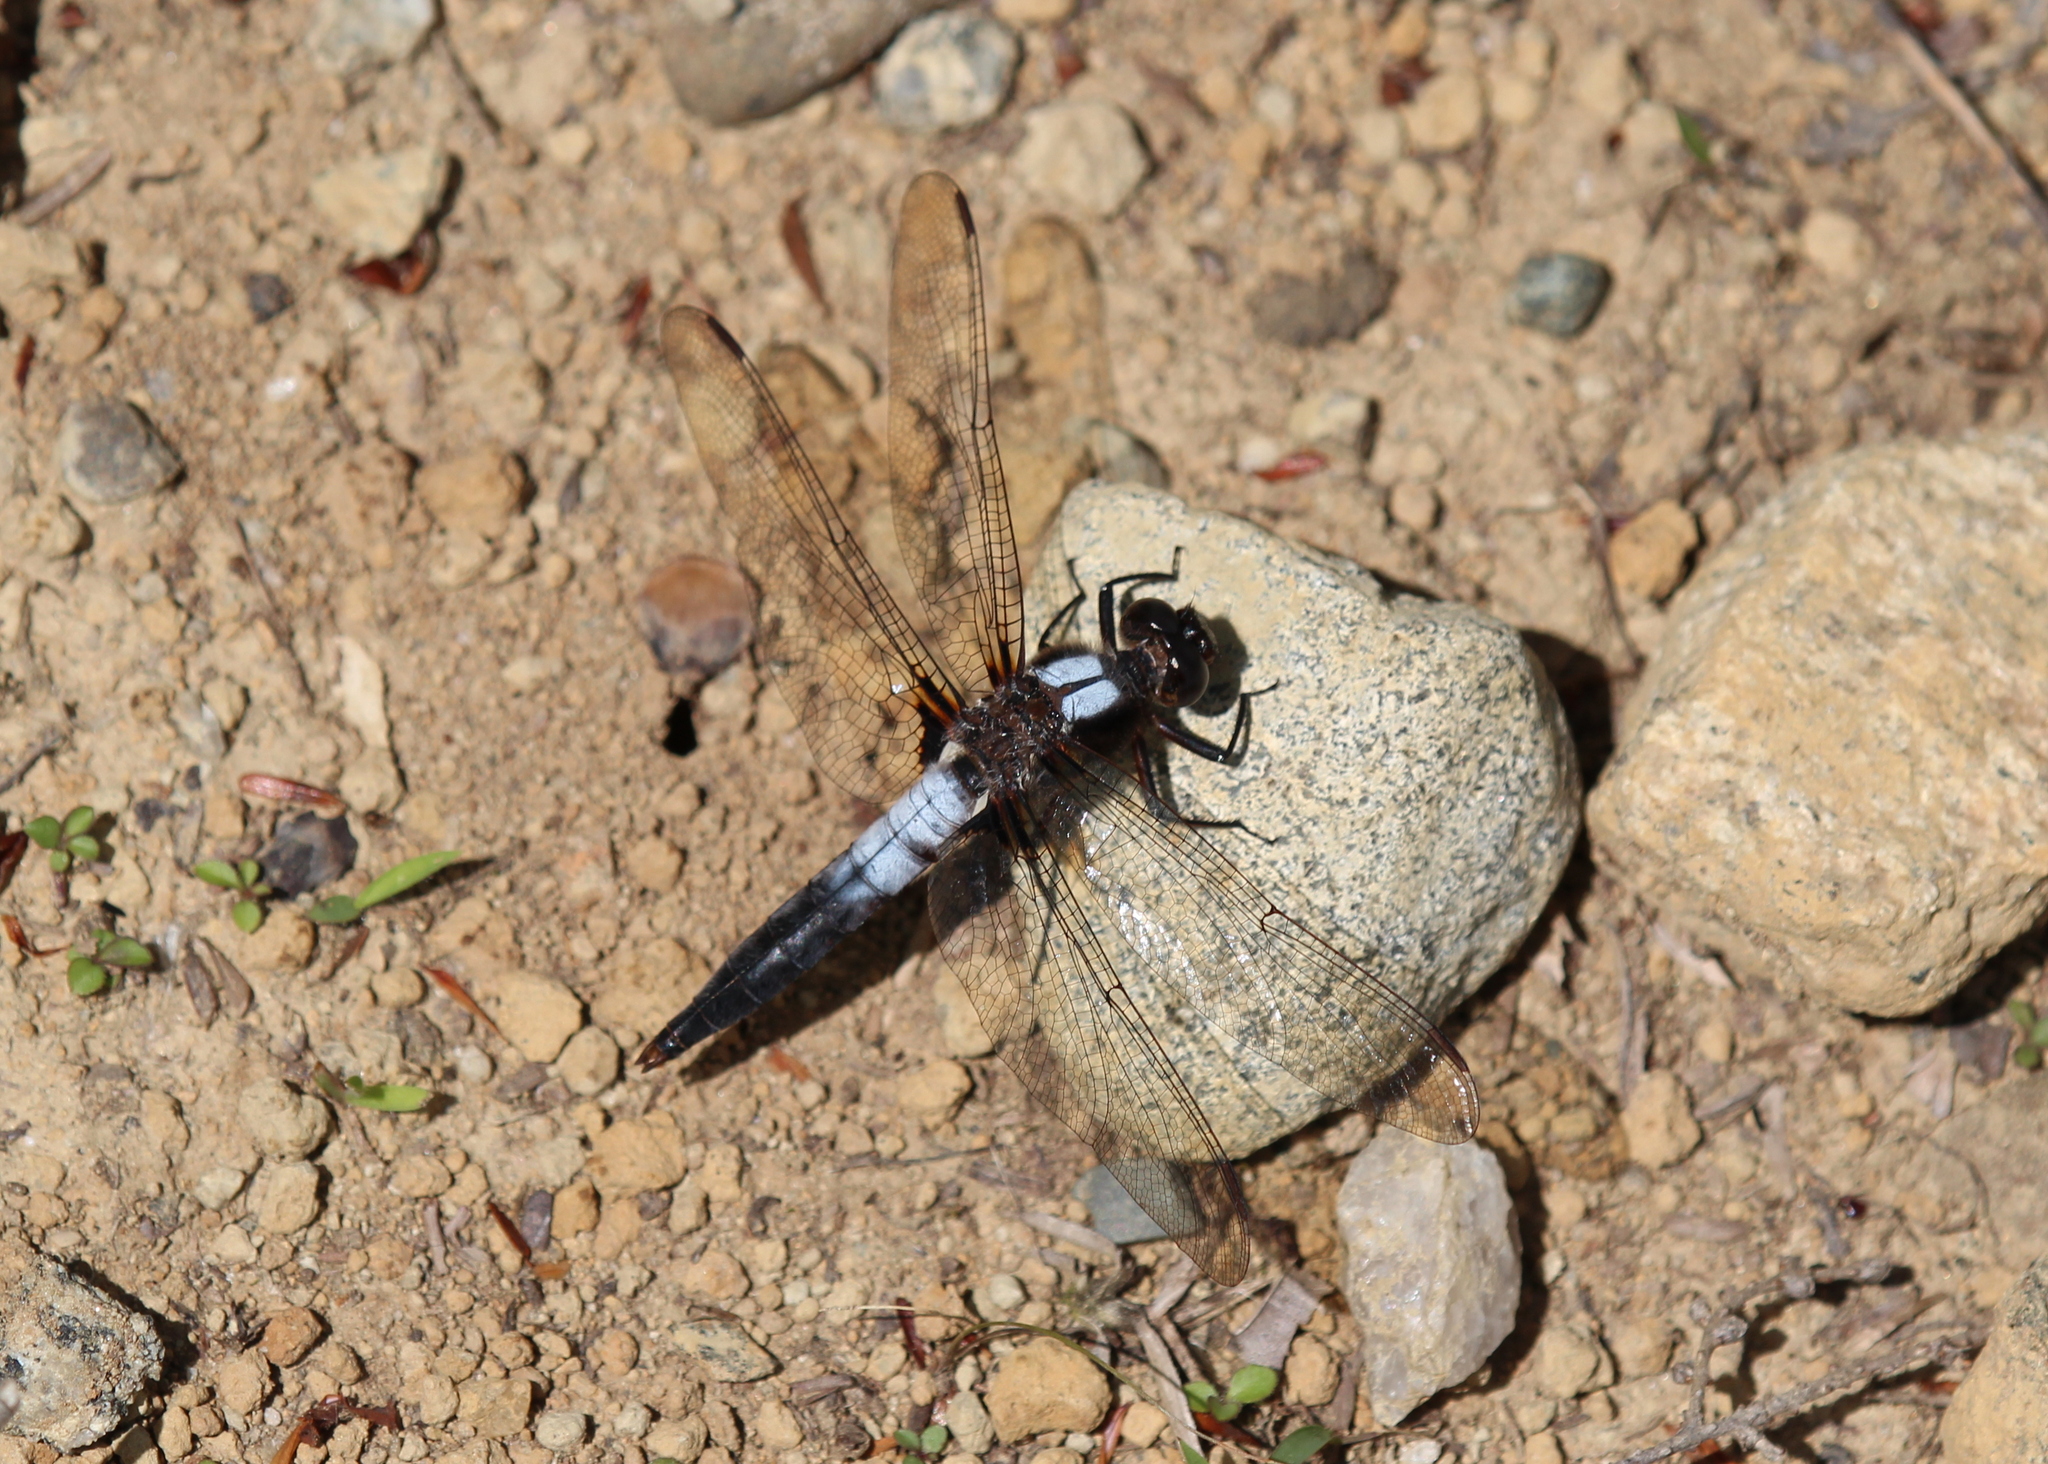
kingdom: Animalia
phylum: Arthropoda
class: Insecta
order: Odonata
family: Libellulidae
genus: Ladona
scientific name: Ladona julia
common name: Chalk-fronted corporal
